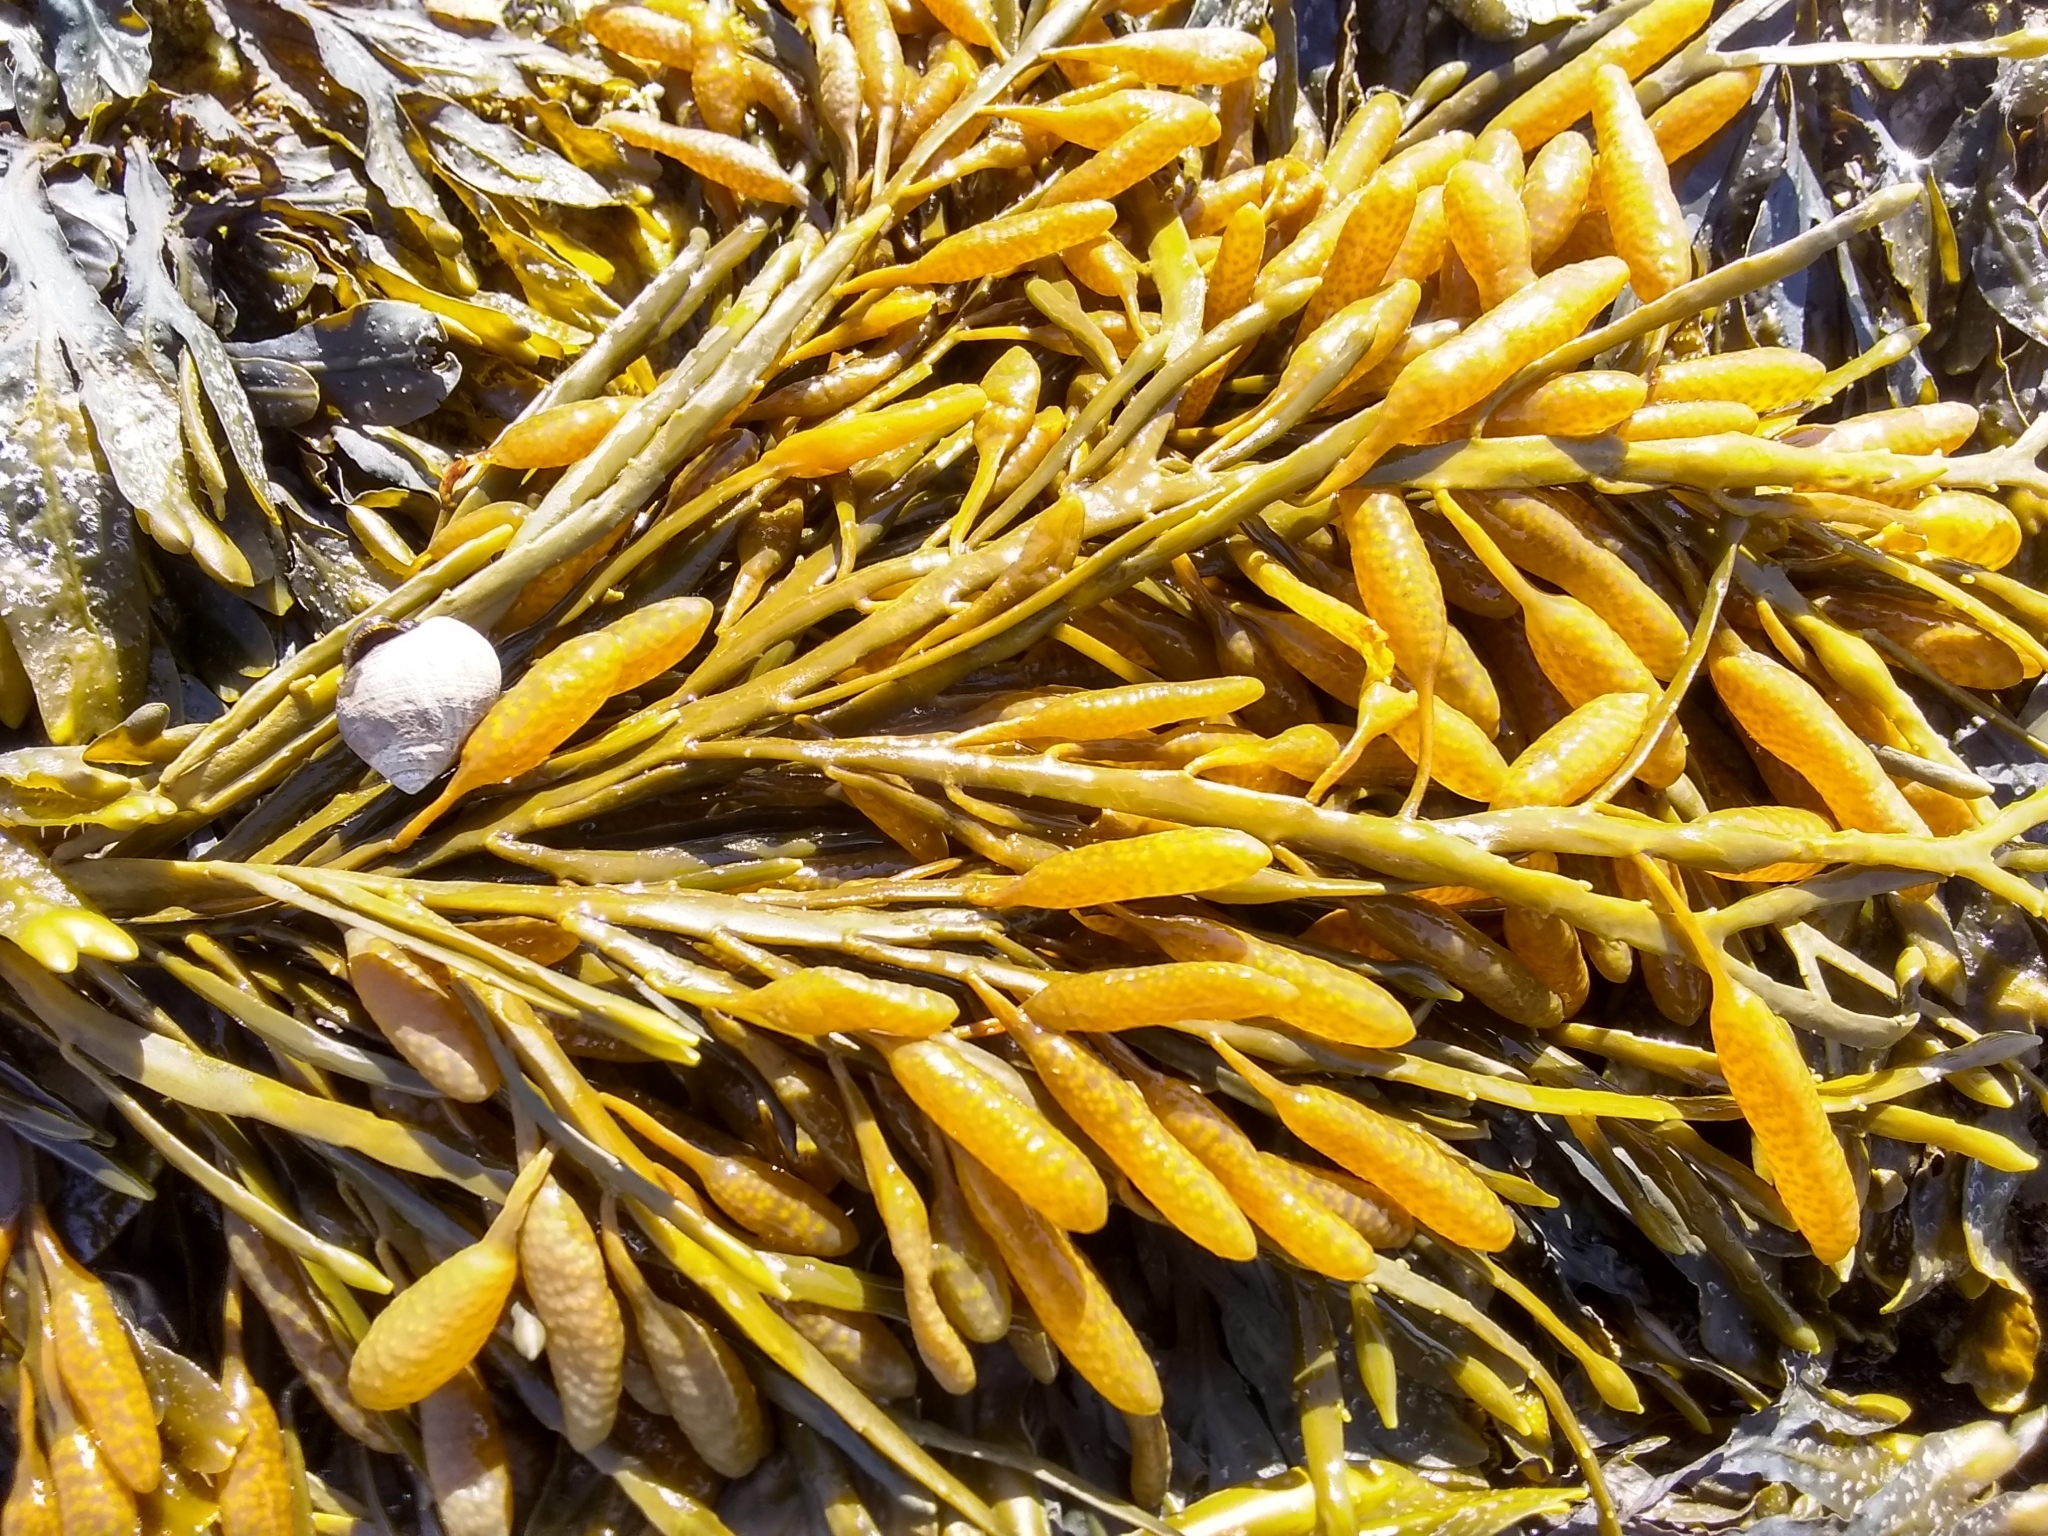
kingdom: Chromista
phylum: Ochrophyta
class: Phaeophyceae
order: Fucales
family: Fucaceae
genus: Ascophyllum
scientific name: Ascophyllum nodosum
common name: Knotted wrack
